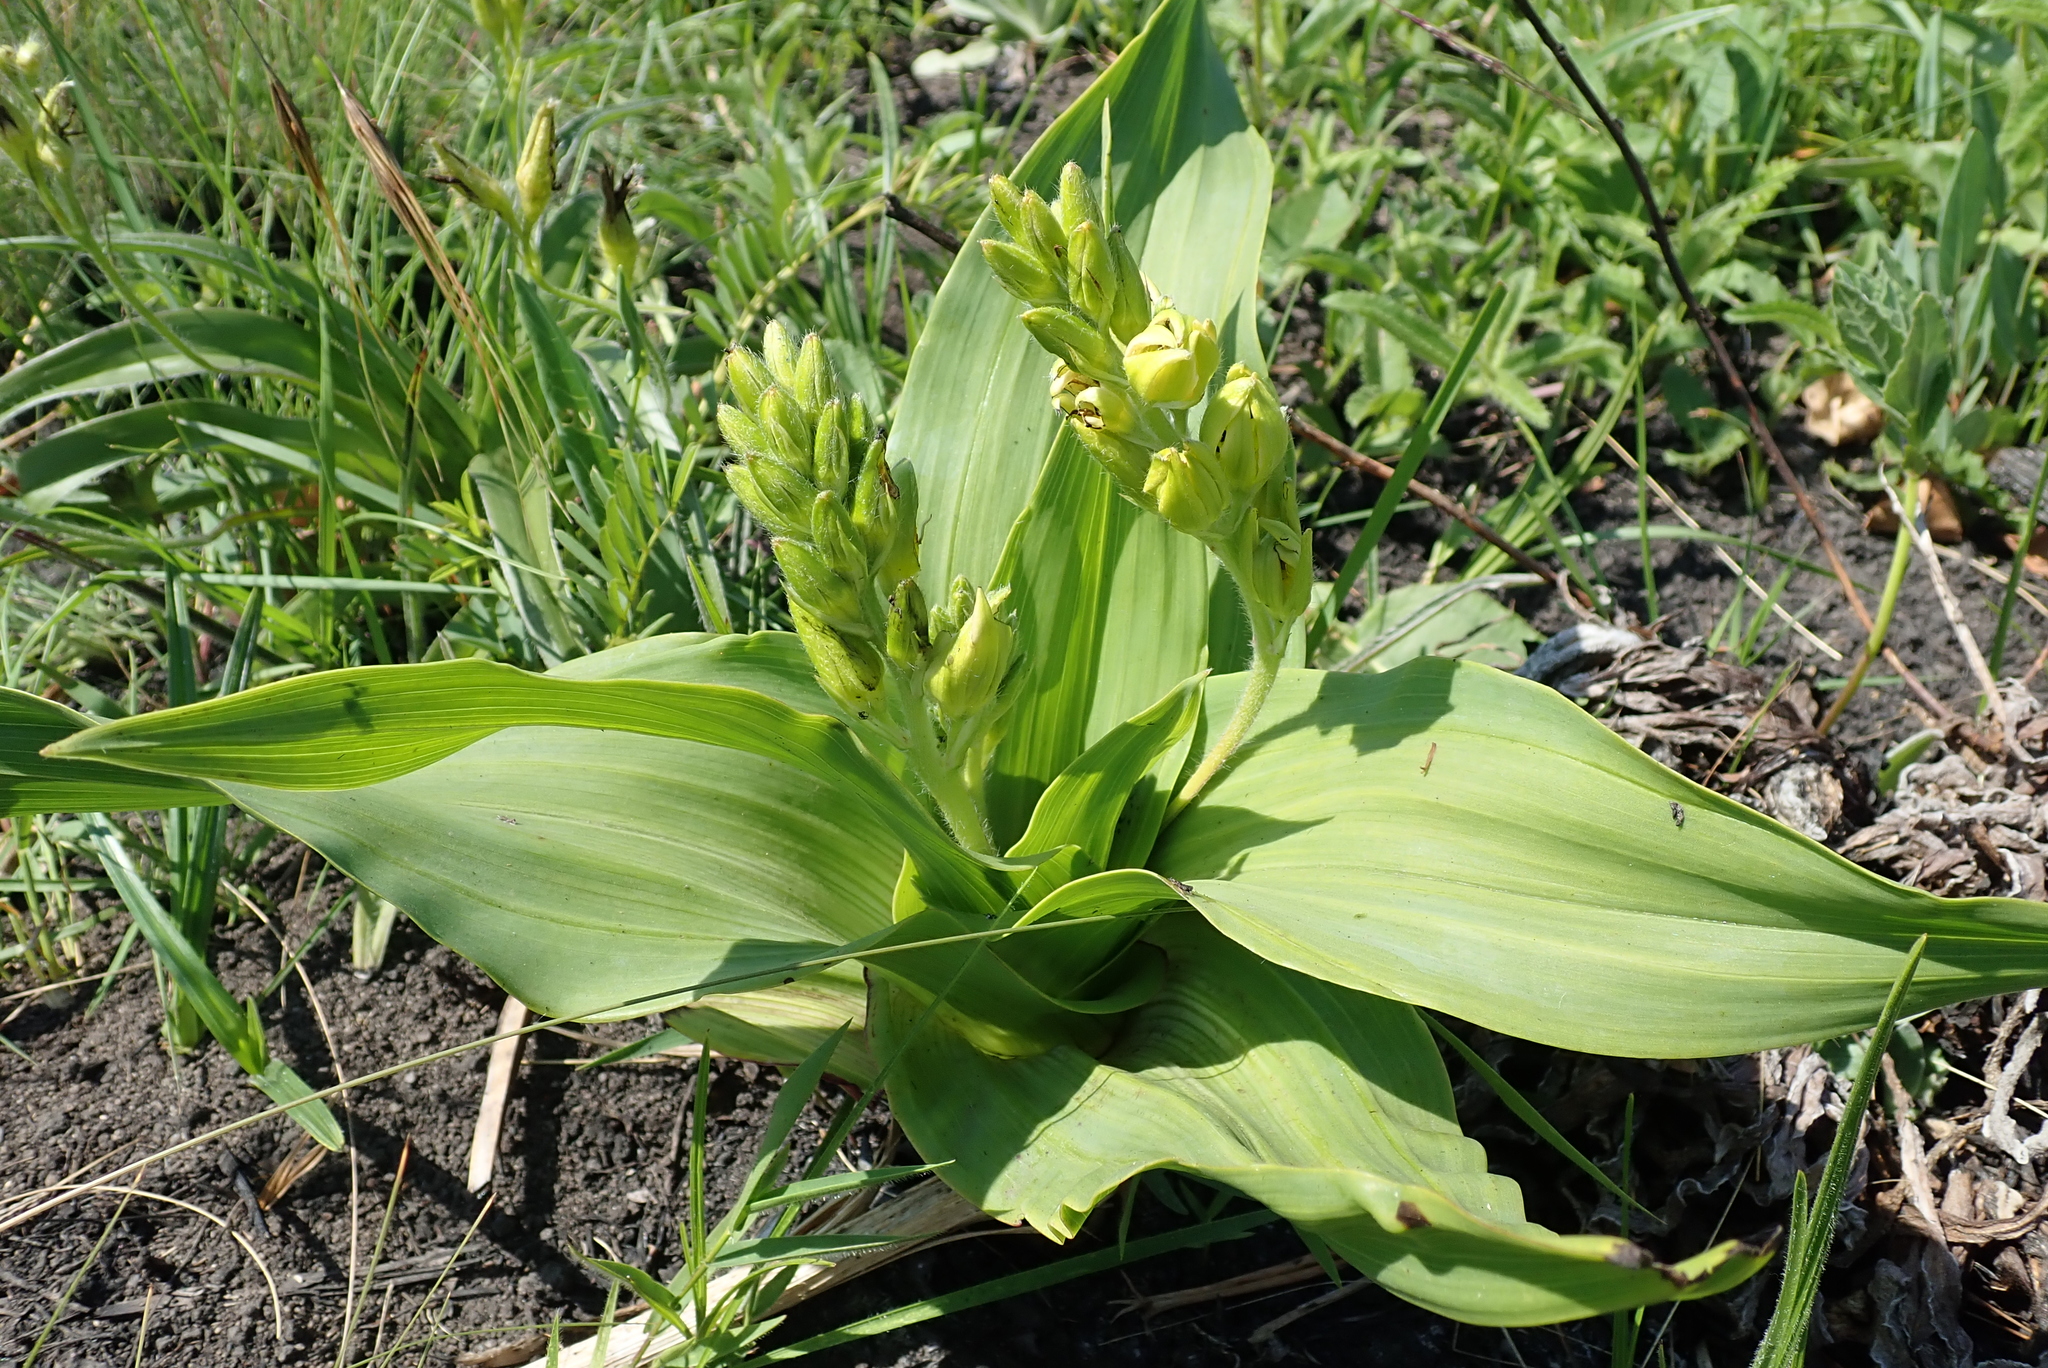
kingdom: Plantae
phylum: Tracheophyta
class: Liliopsida
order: Asparagales
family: Hypoxidaceae
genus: Hypoxis
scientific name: Hypoxis colchicifolia
